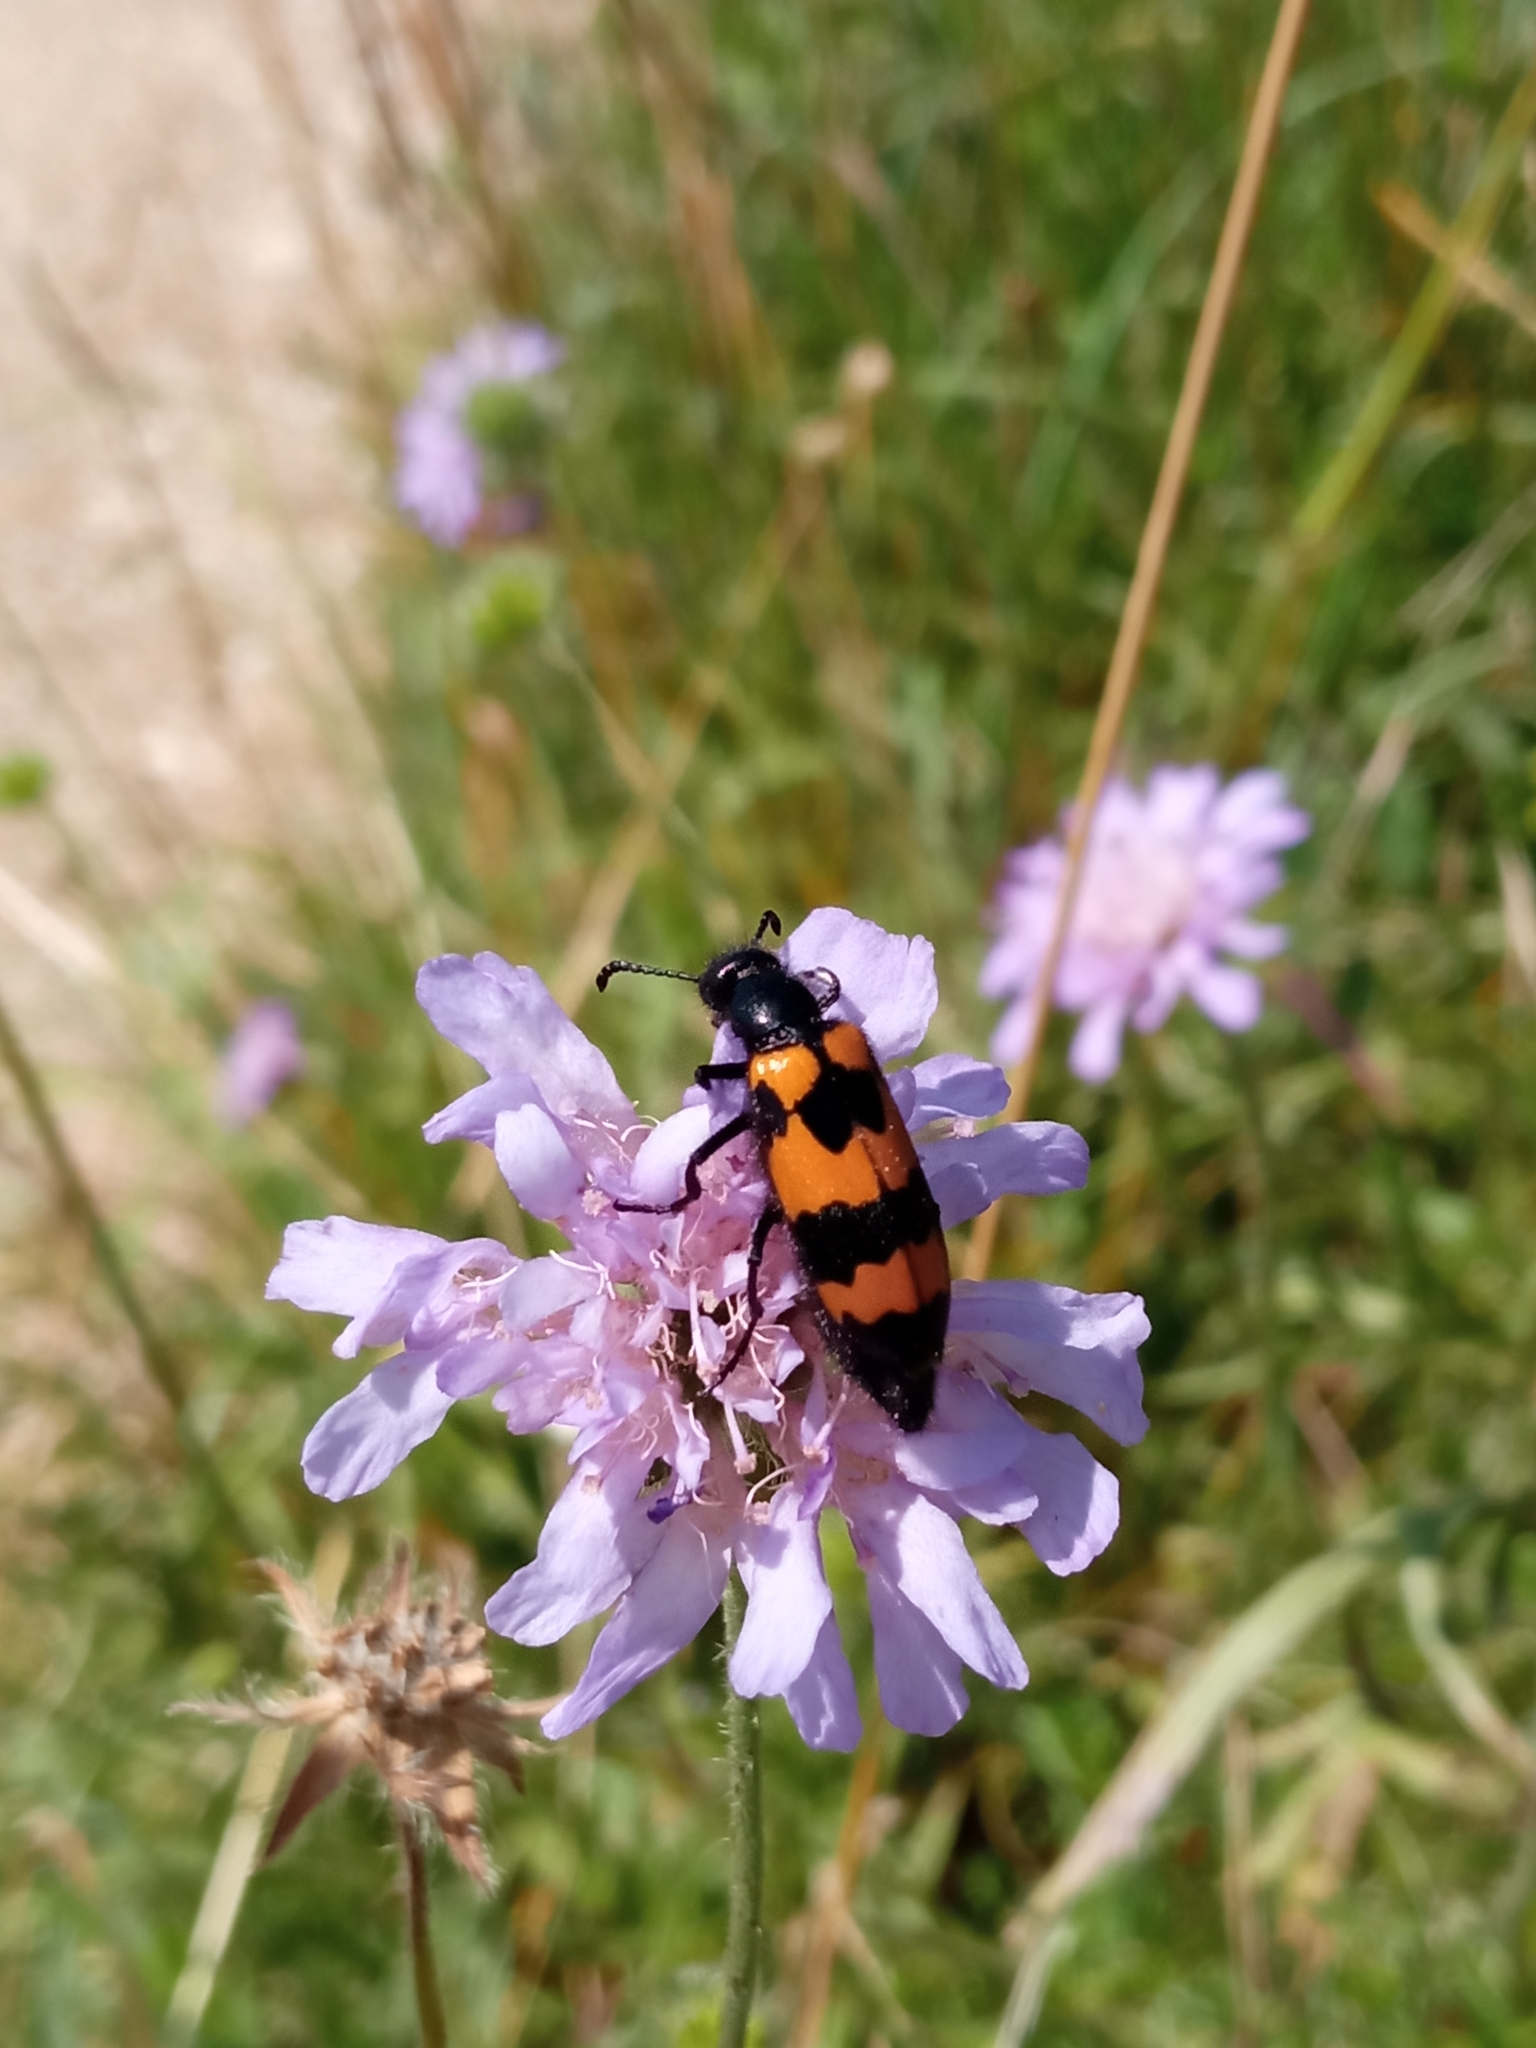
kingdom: Animalia
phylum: Arthropoda
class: Insecta
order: Coleoptera
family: Meloidae
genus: Mylabris
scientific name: Mylabris variabilis
